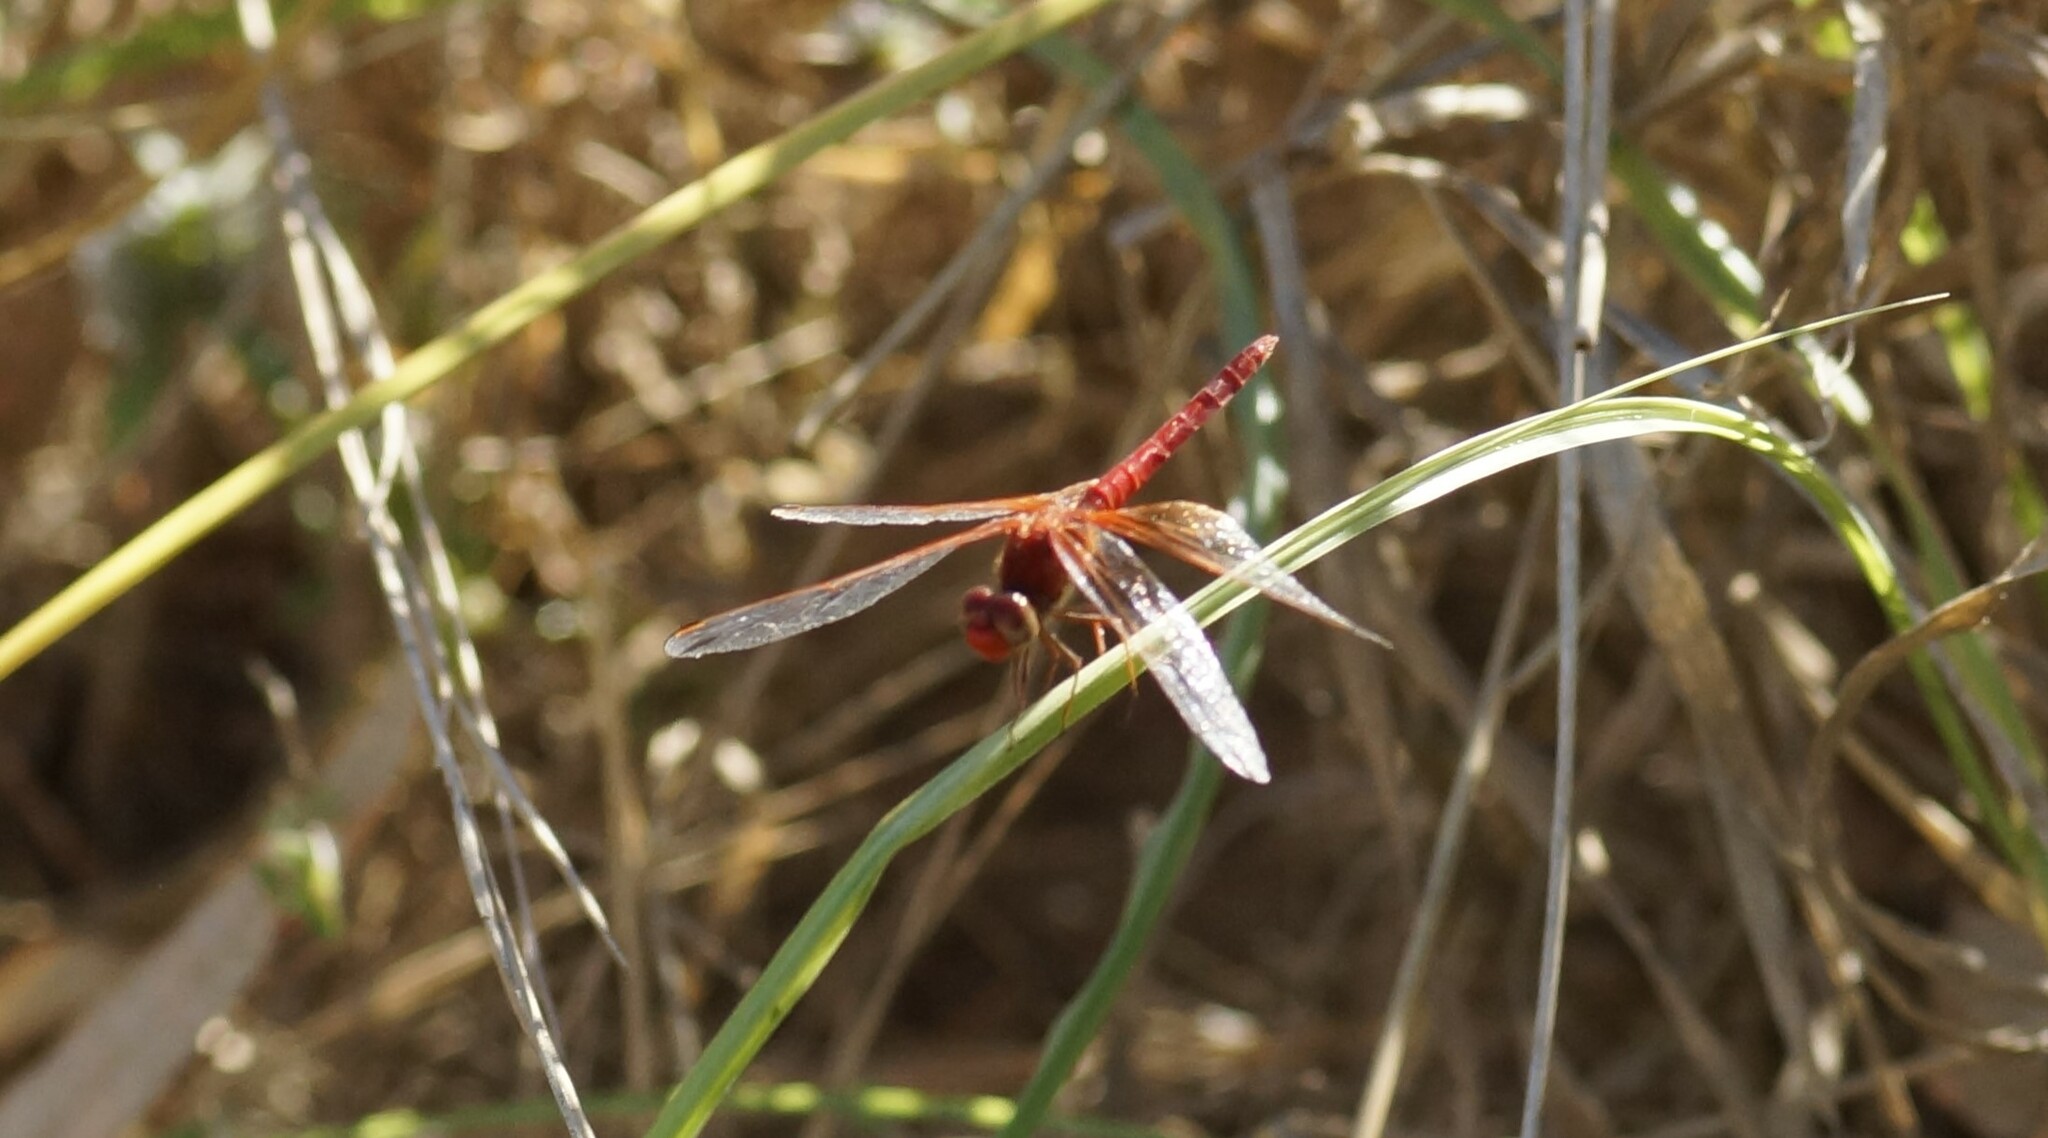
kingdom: Animalia
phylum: Arthropoda
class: Insecta
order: Odonata
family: Libellulidae
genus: Diplacodes
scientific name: Diplacodes haematodes
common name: Scarlet percher
